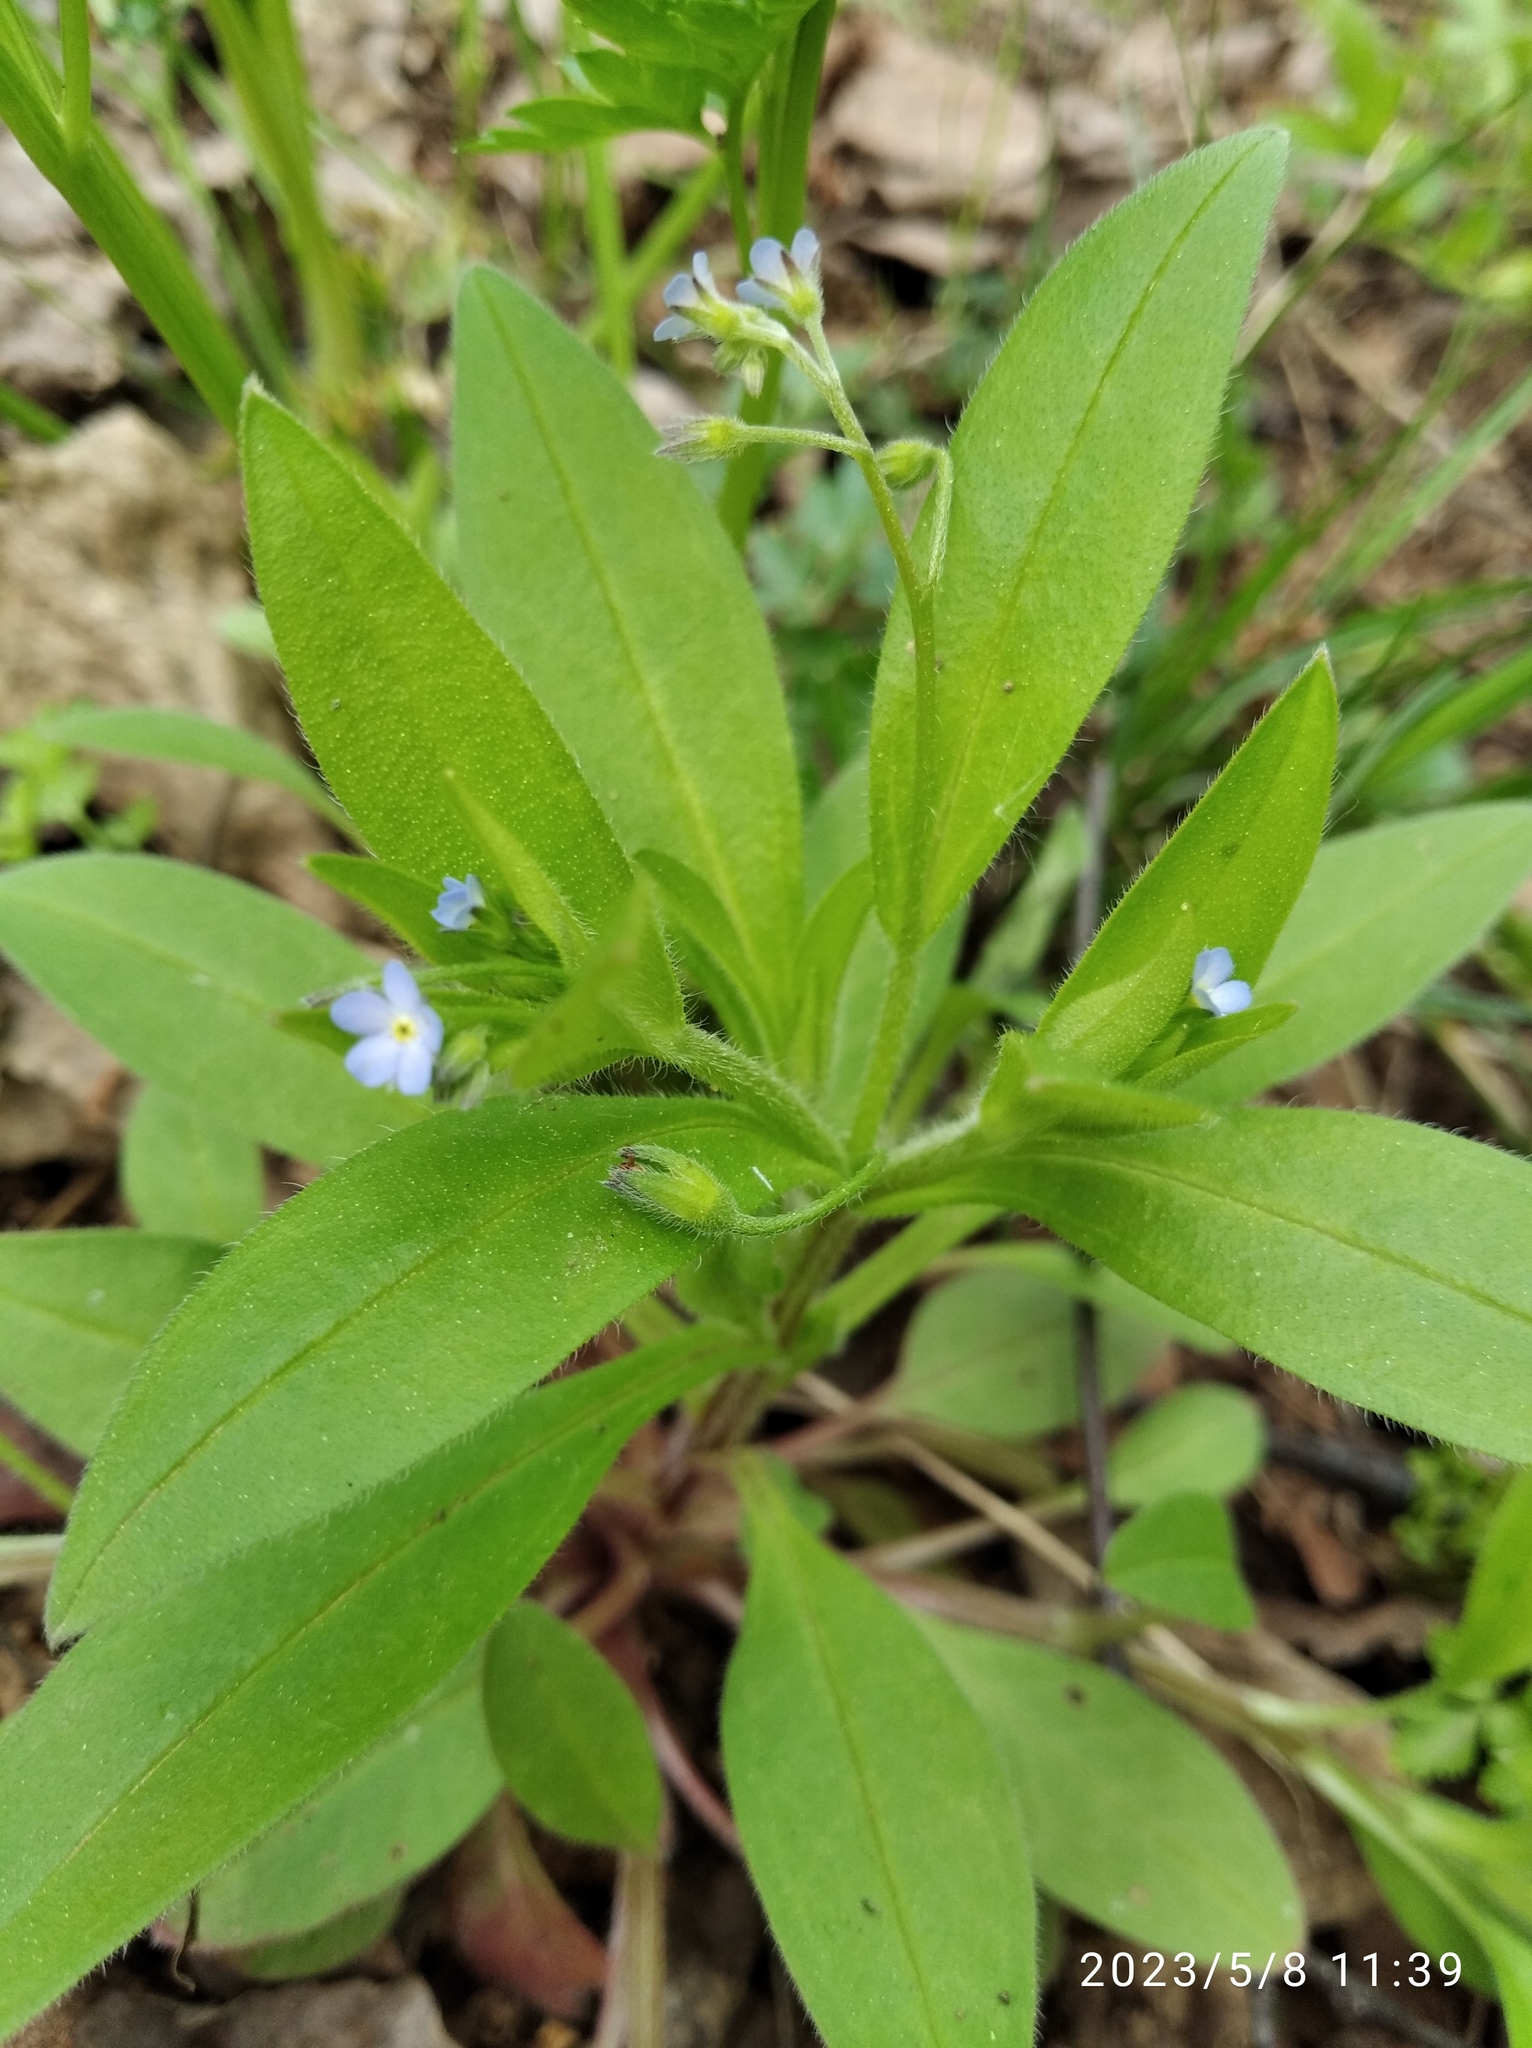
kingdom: Plantae
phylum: Tracheophyta
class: Magnoliopsida
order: Boraginales
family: Boraginaceae
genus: Myosotis
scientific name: Myosotis sparsiflora
